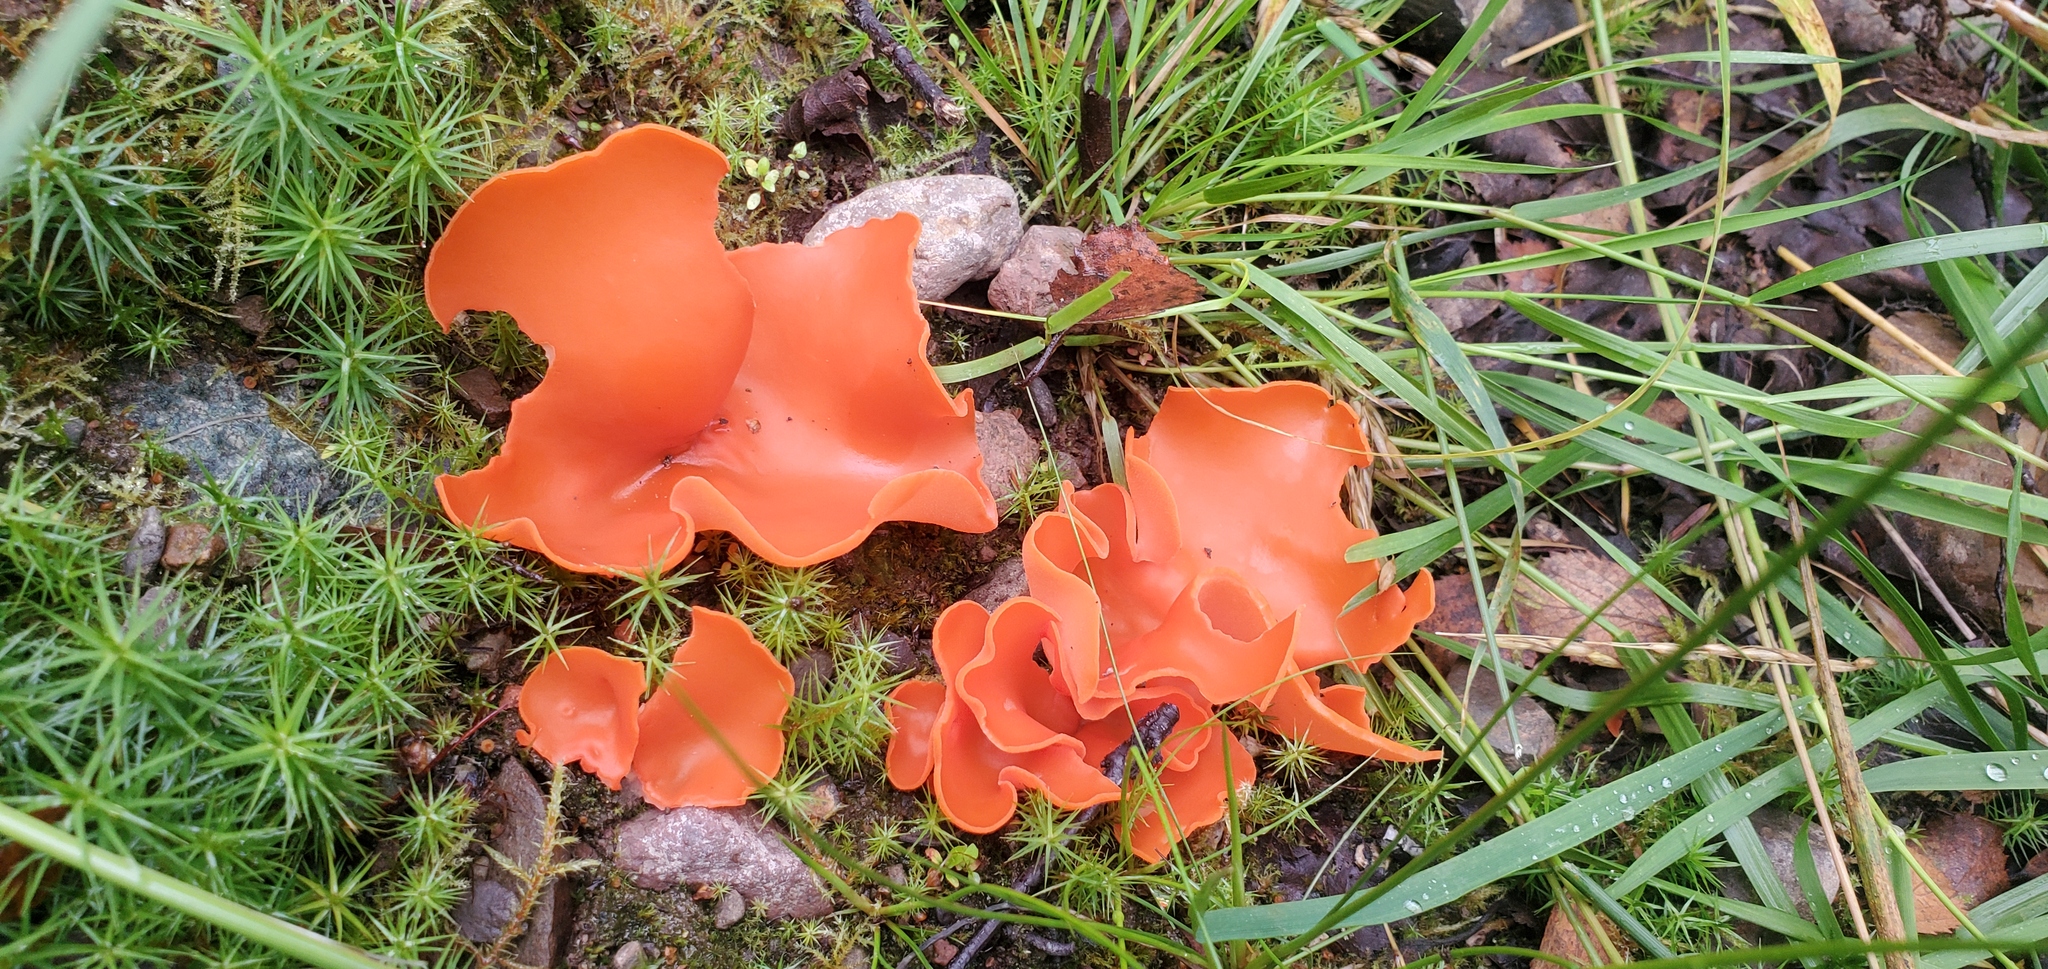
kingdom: Fungi
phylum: Ascomycota
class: Pezizomycetes
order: Pezizales
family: Pyronemataceae
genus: Aleuria
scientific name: Aleuria aurantia
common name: Orange peel fungus
